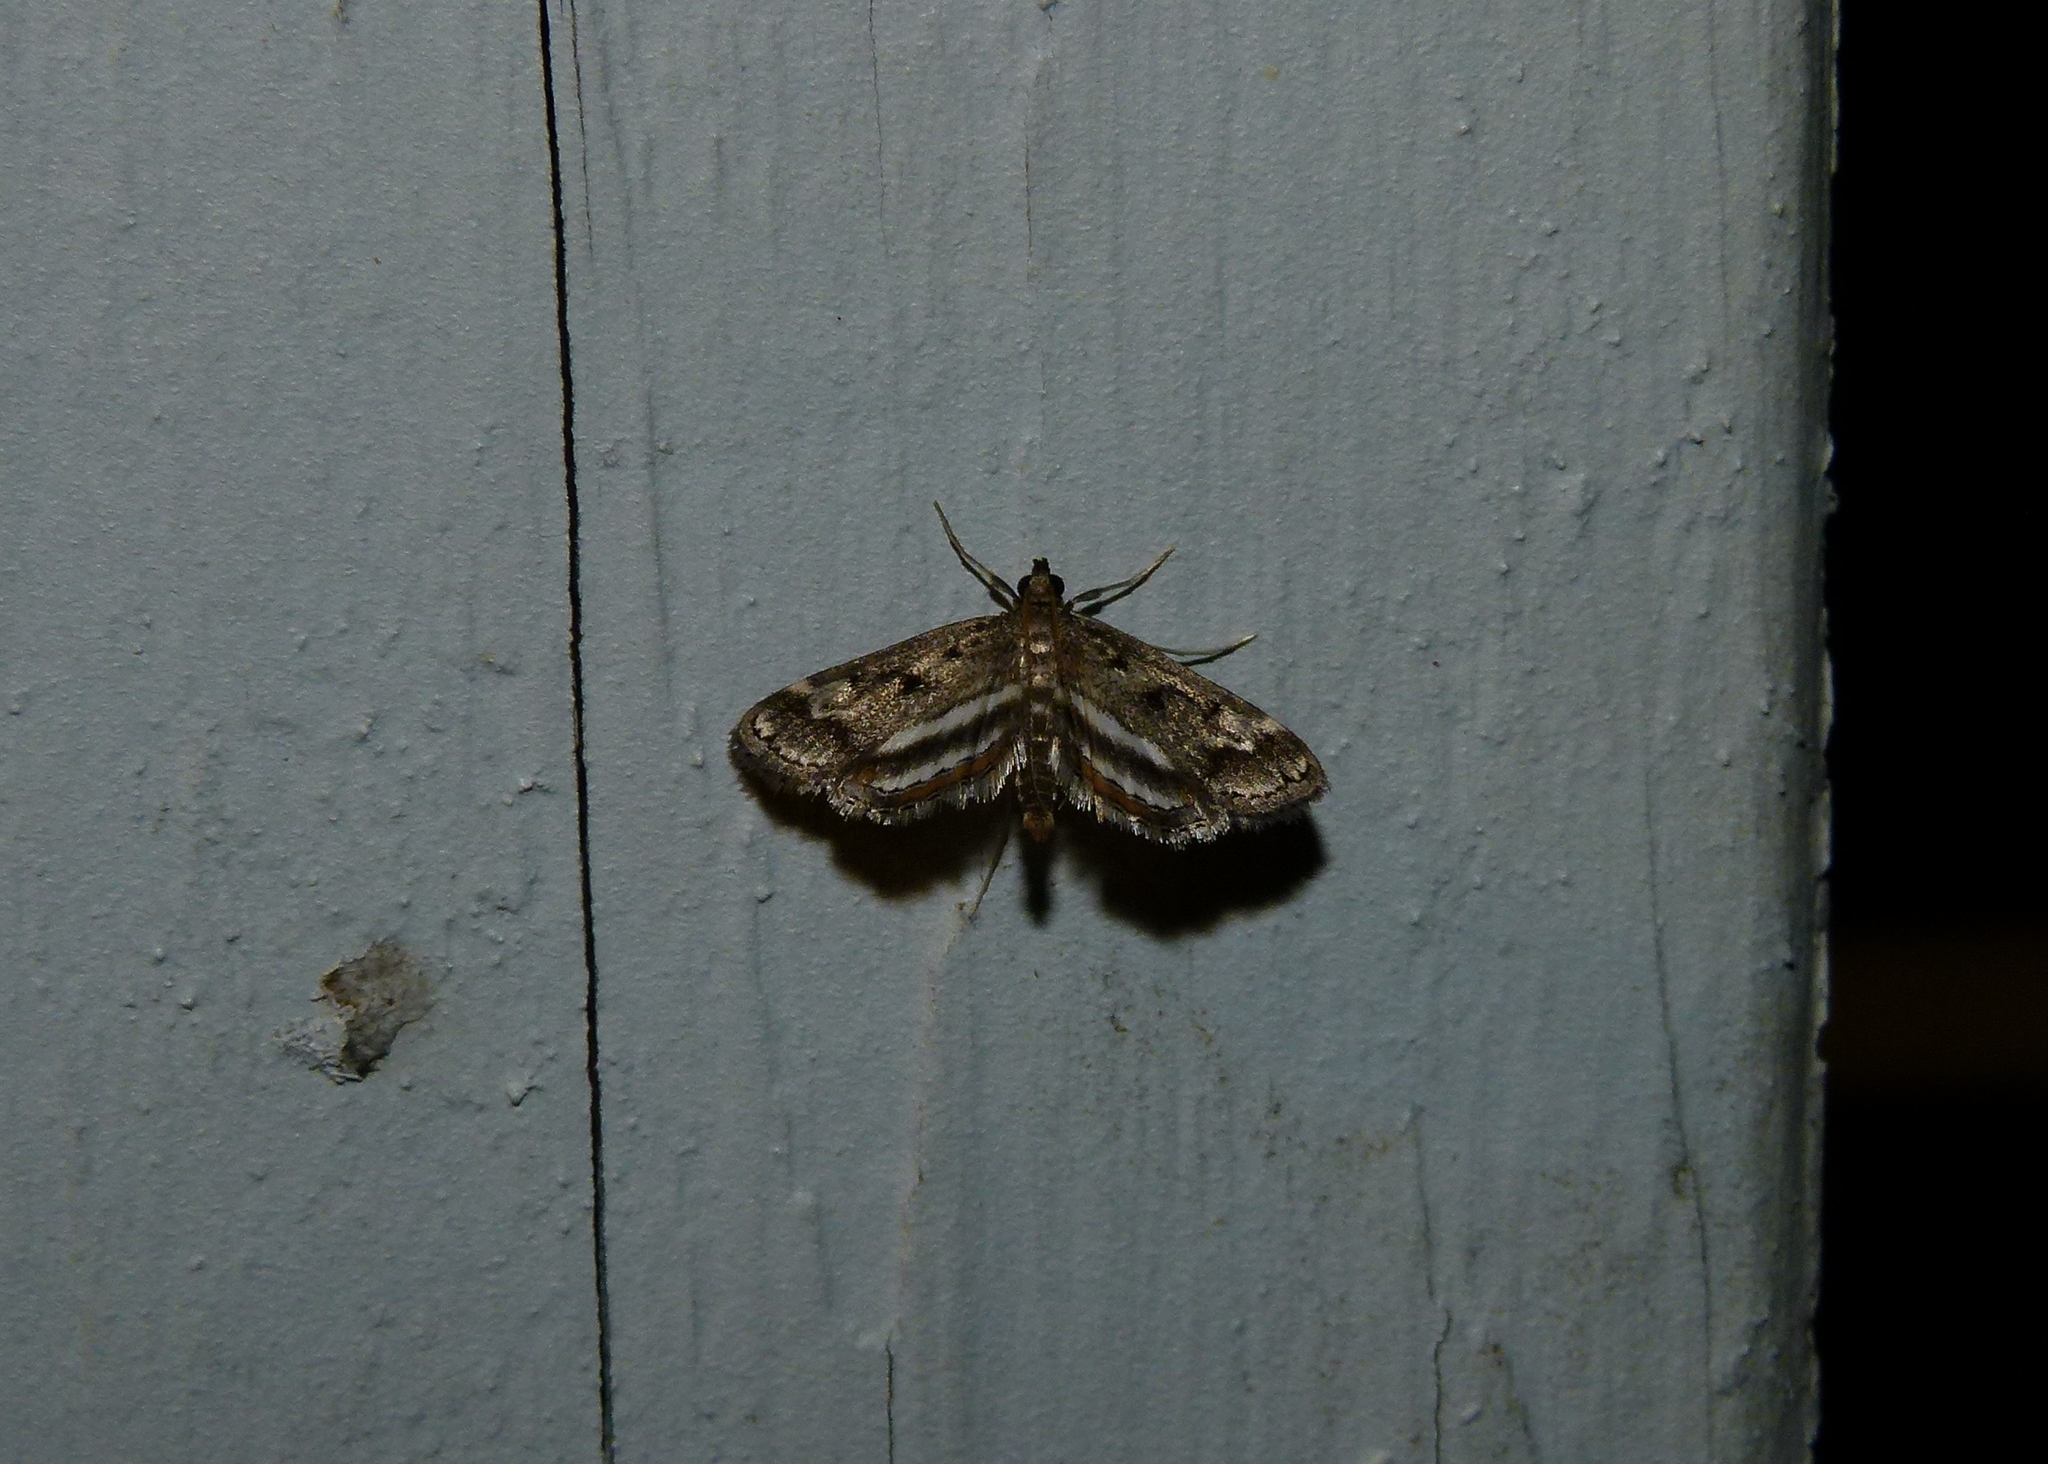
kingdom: Animalia
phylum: Arthropoda
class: Insecta
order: Lepidoptera
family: Crambidae
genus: Parapoynx
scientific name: Parapoynx obscuralis
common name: American china-mark
